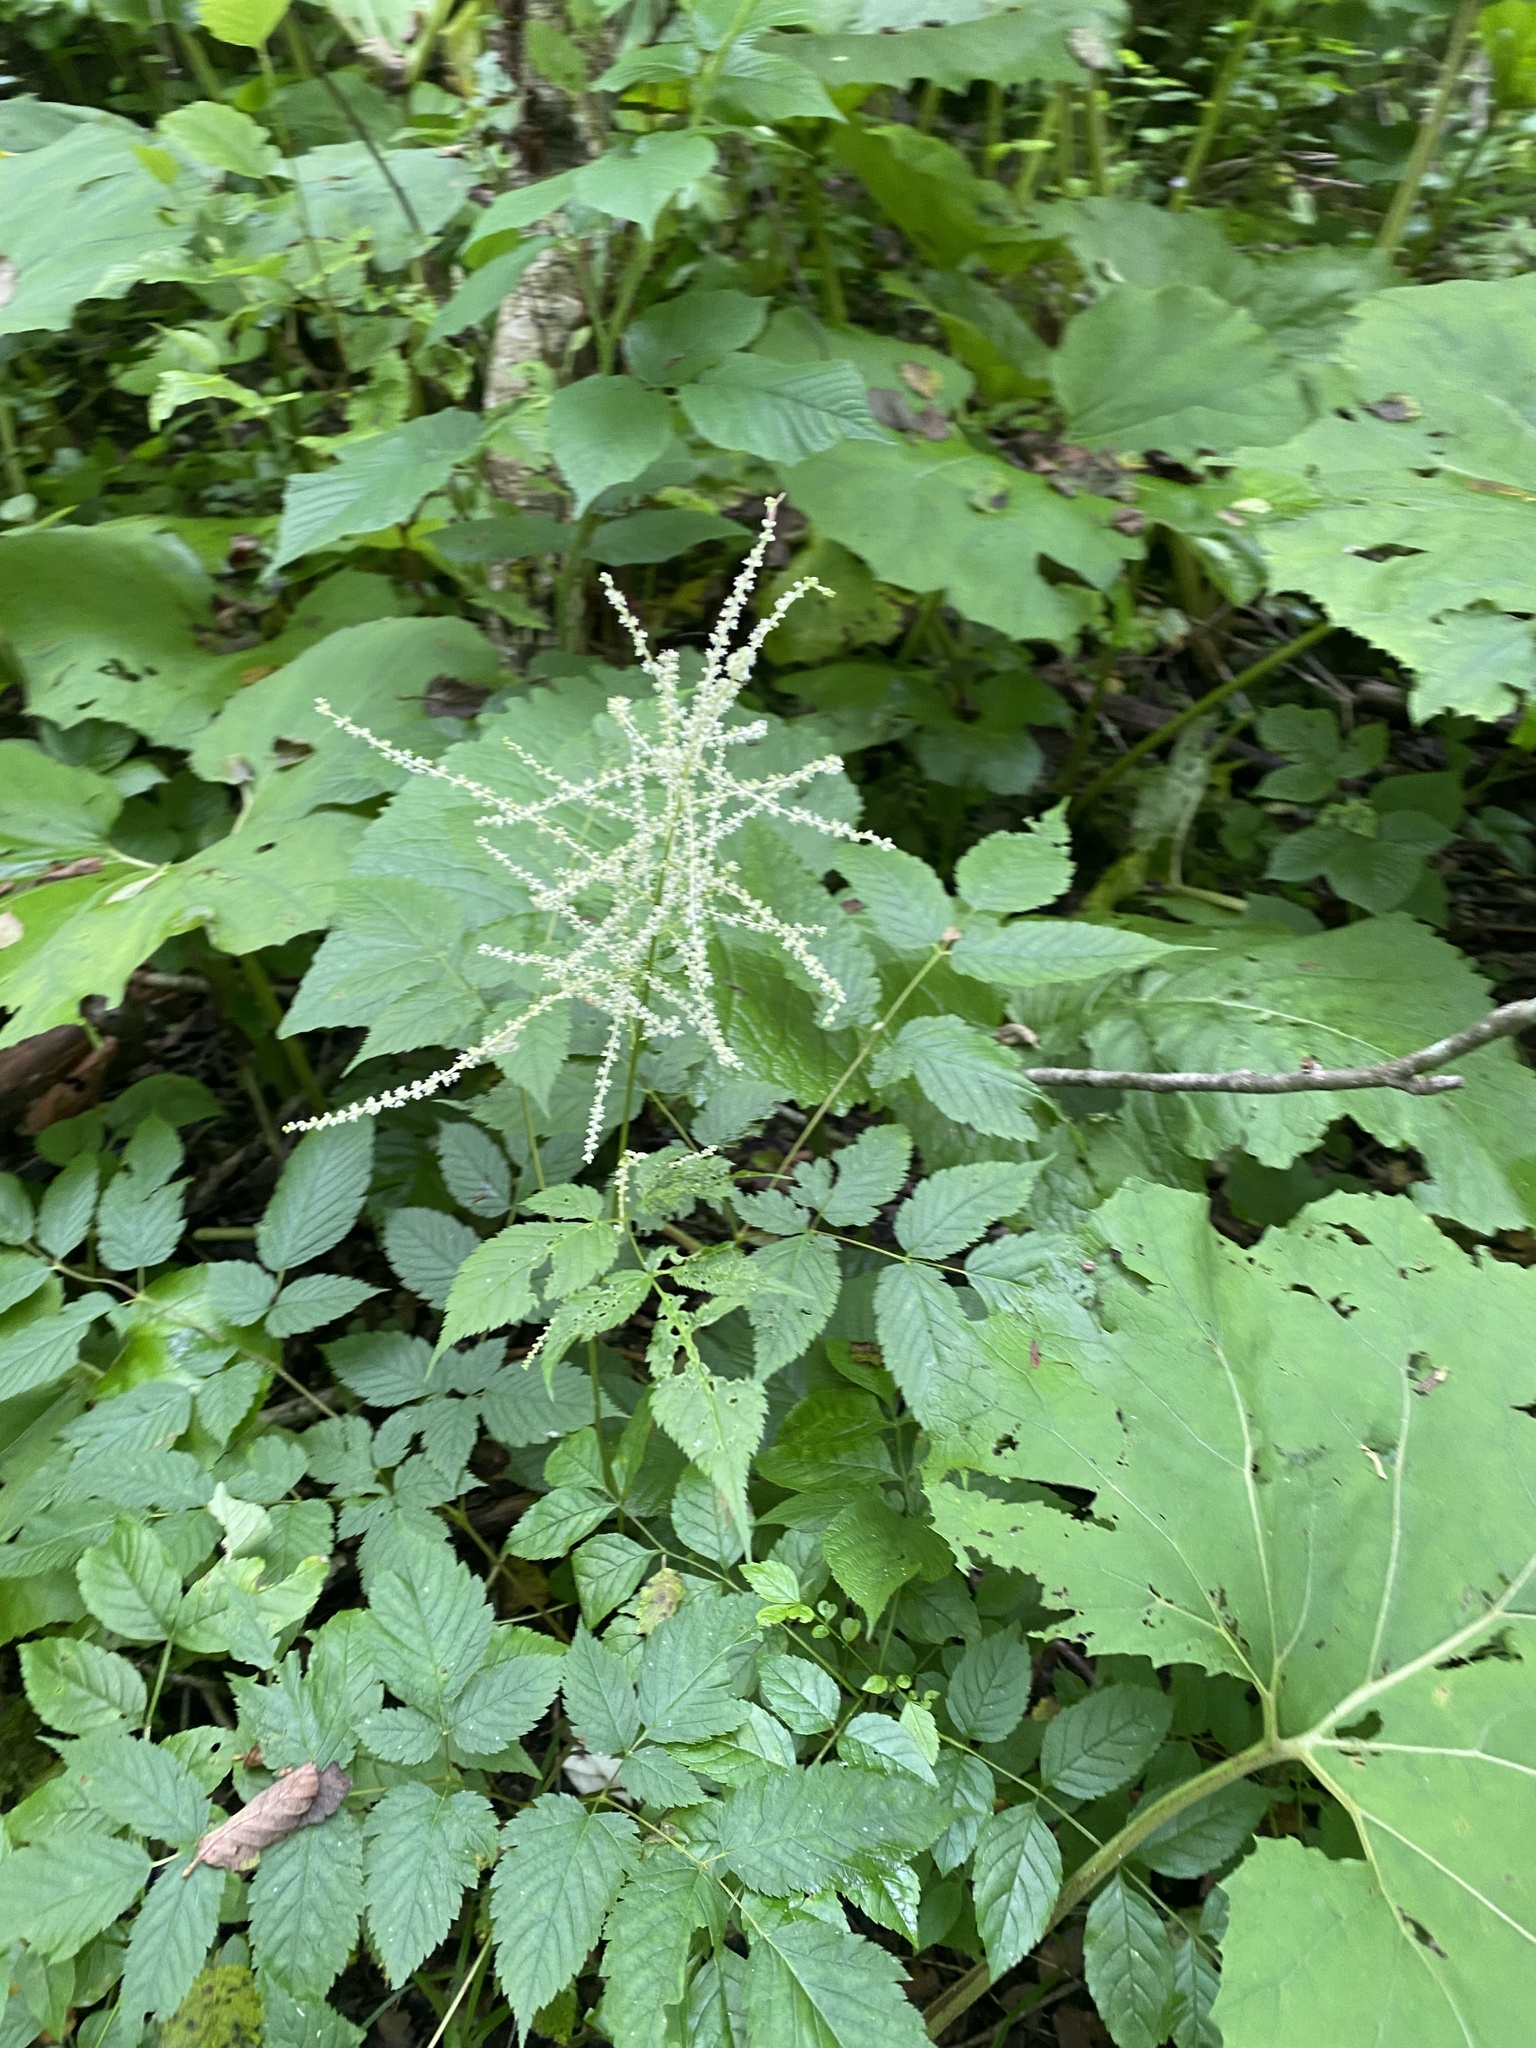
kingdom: Plantae
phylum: Tracheophyta
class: Magnoliopsida
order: Rosales
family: Rosaceae
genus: Aruncus
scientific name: Aruncus dioicus
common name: Buck's-beard
